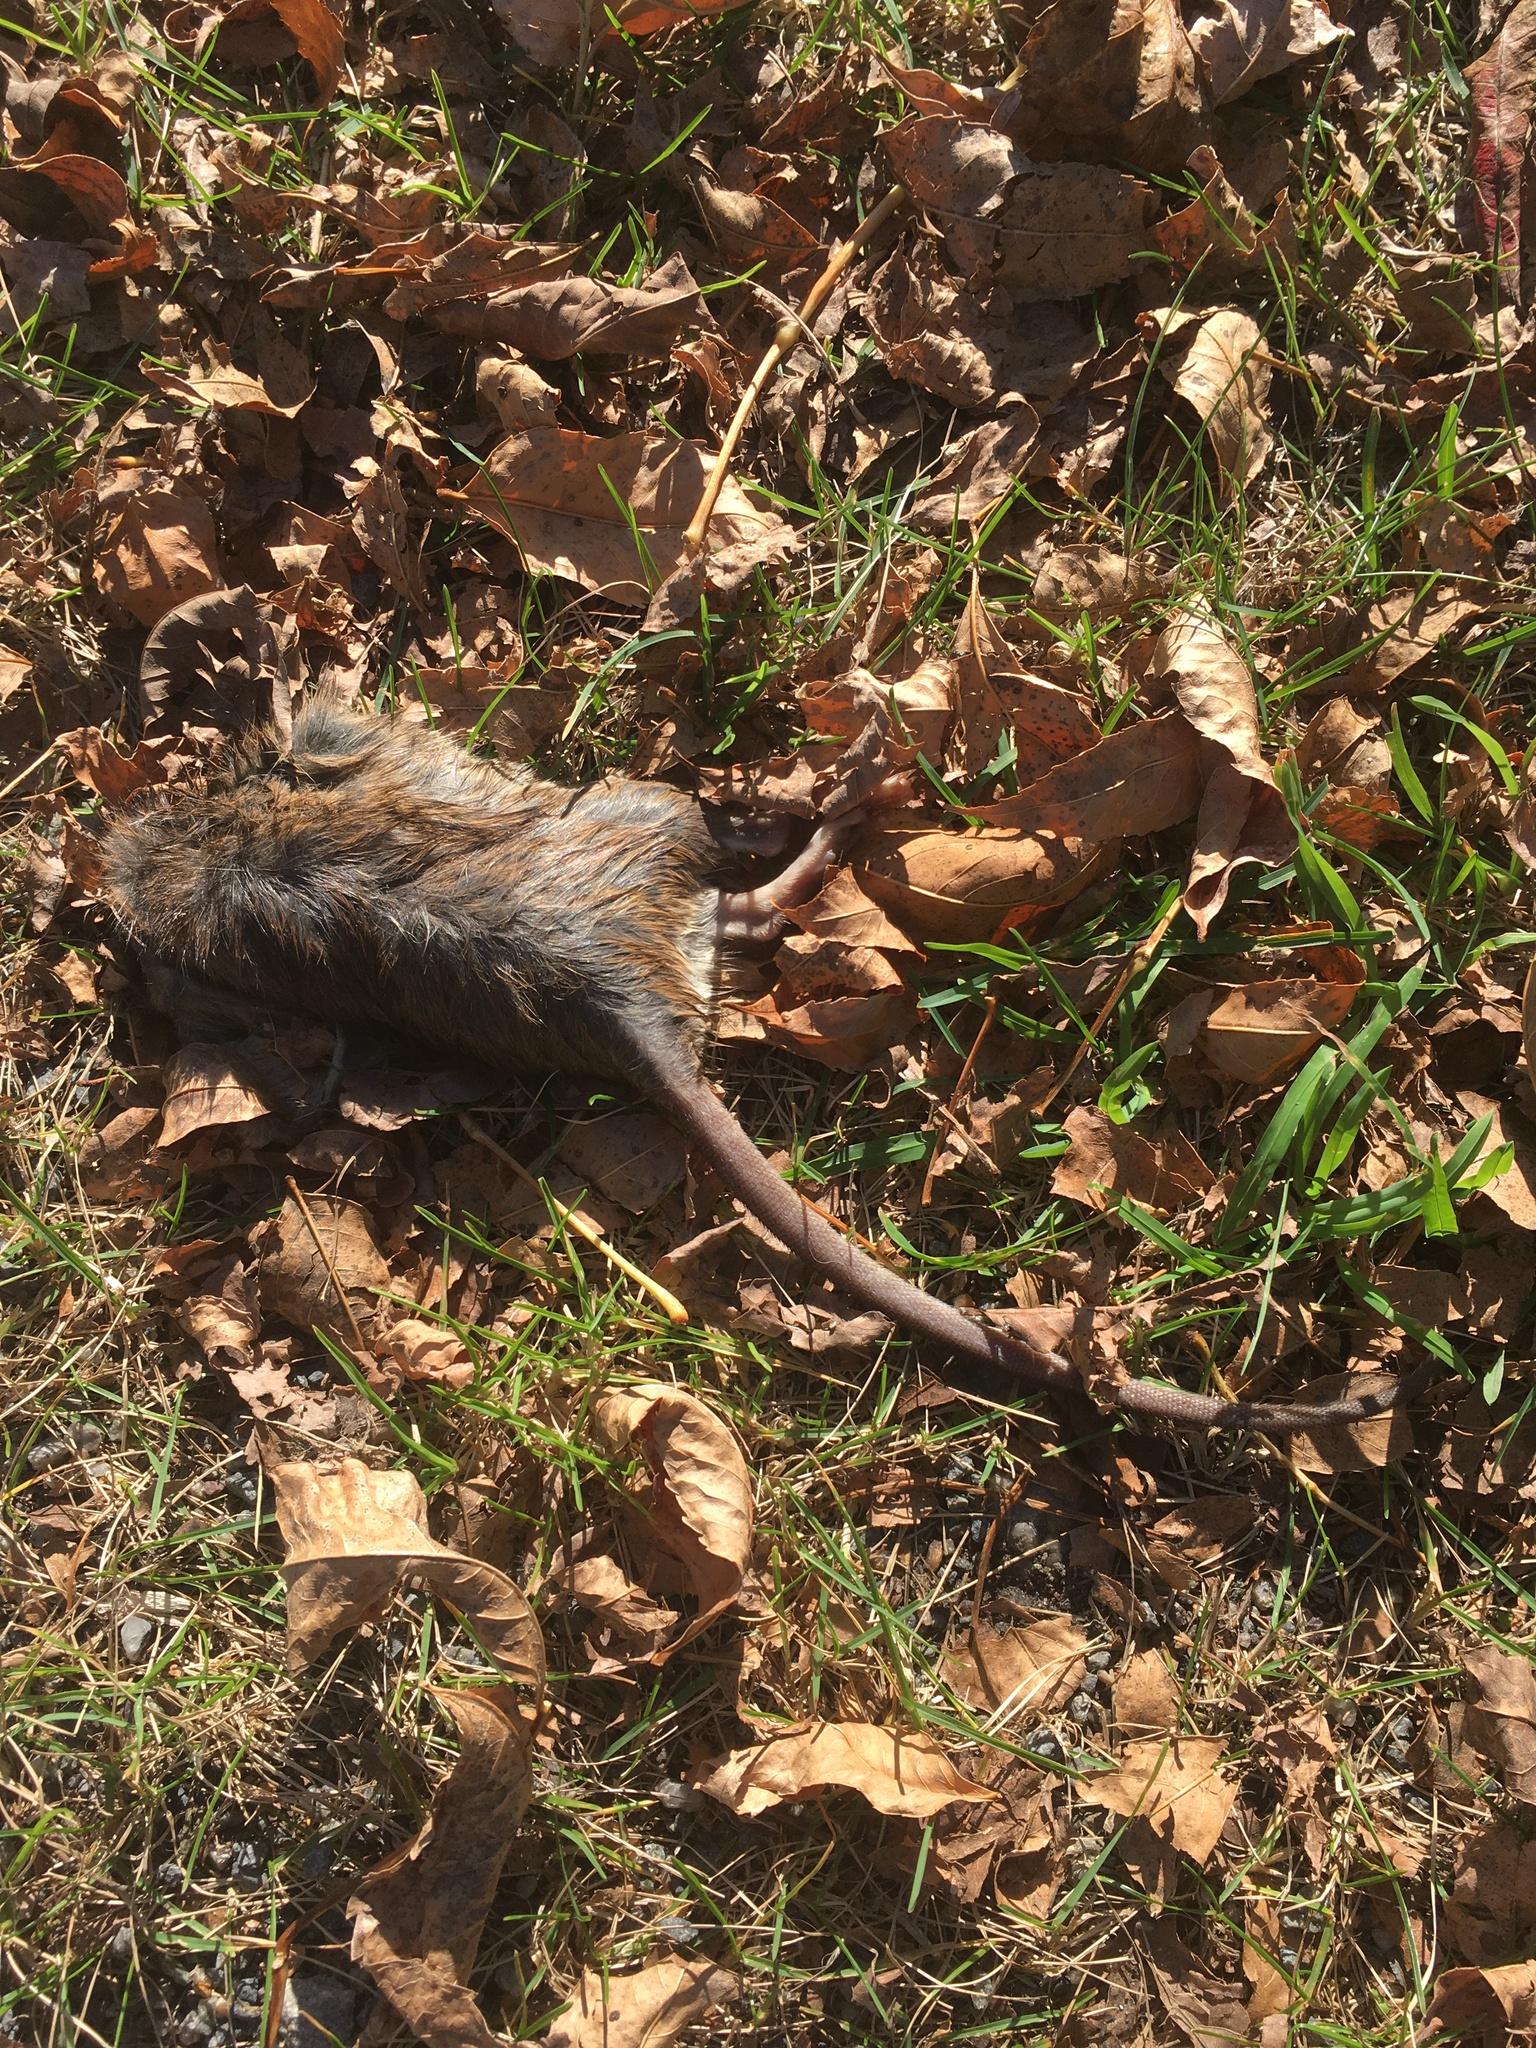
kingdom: Animalia
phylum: Chordata
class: Mammalia
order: Rodentia
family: Muridae
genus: Rattus
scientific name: Rattus norvegicus
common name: Brown rat
